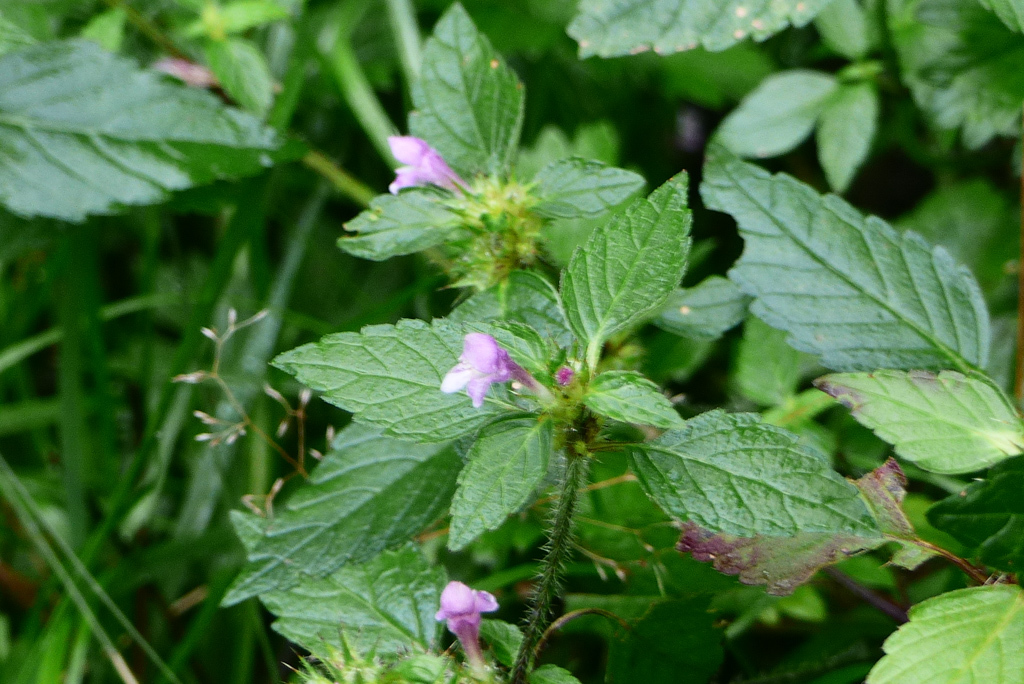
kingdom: Plantae
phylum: Tracheophyta
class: Magnoliopsida
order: Lamiales
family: Lamiaceae
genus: Galeopsis
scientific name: Galeopsis tetrahit
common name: Common hemp-nettle
